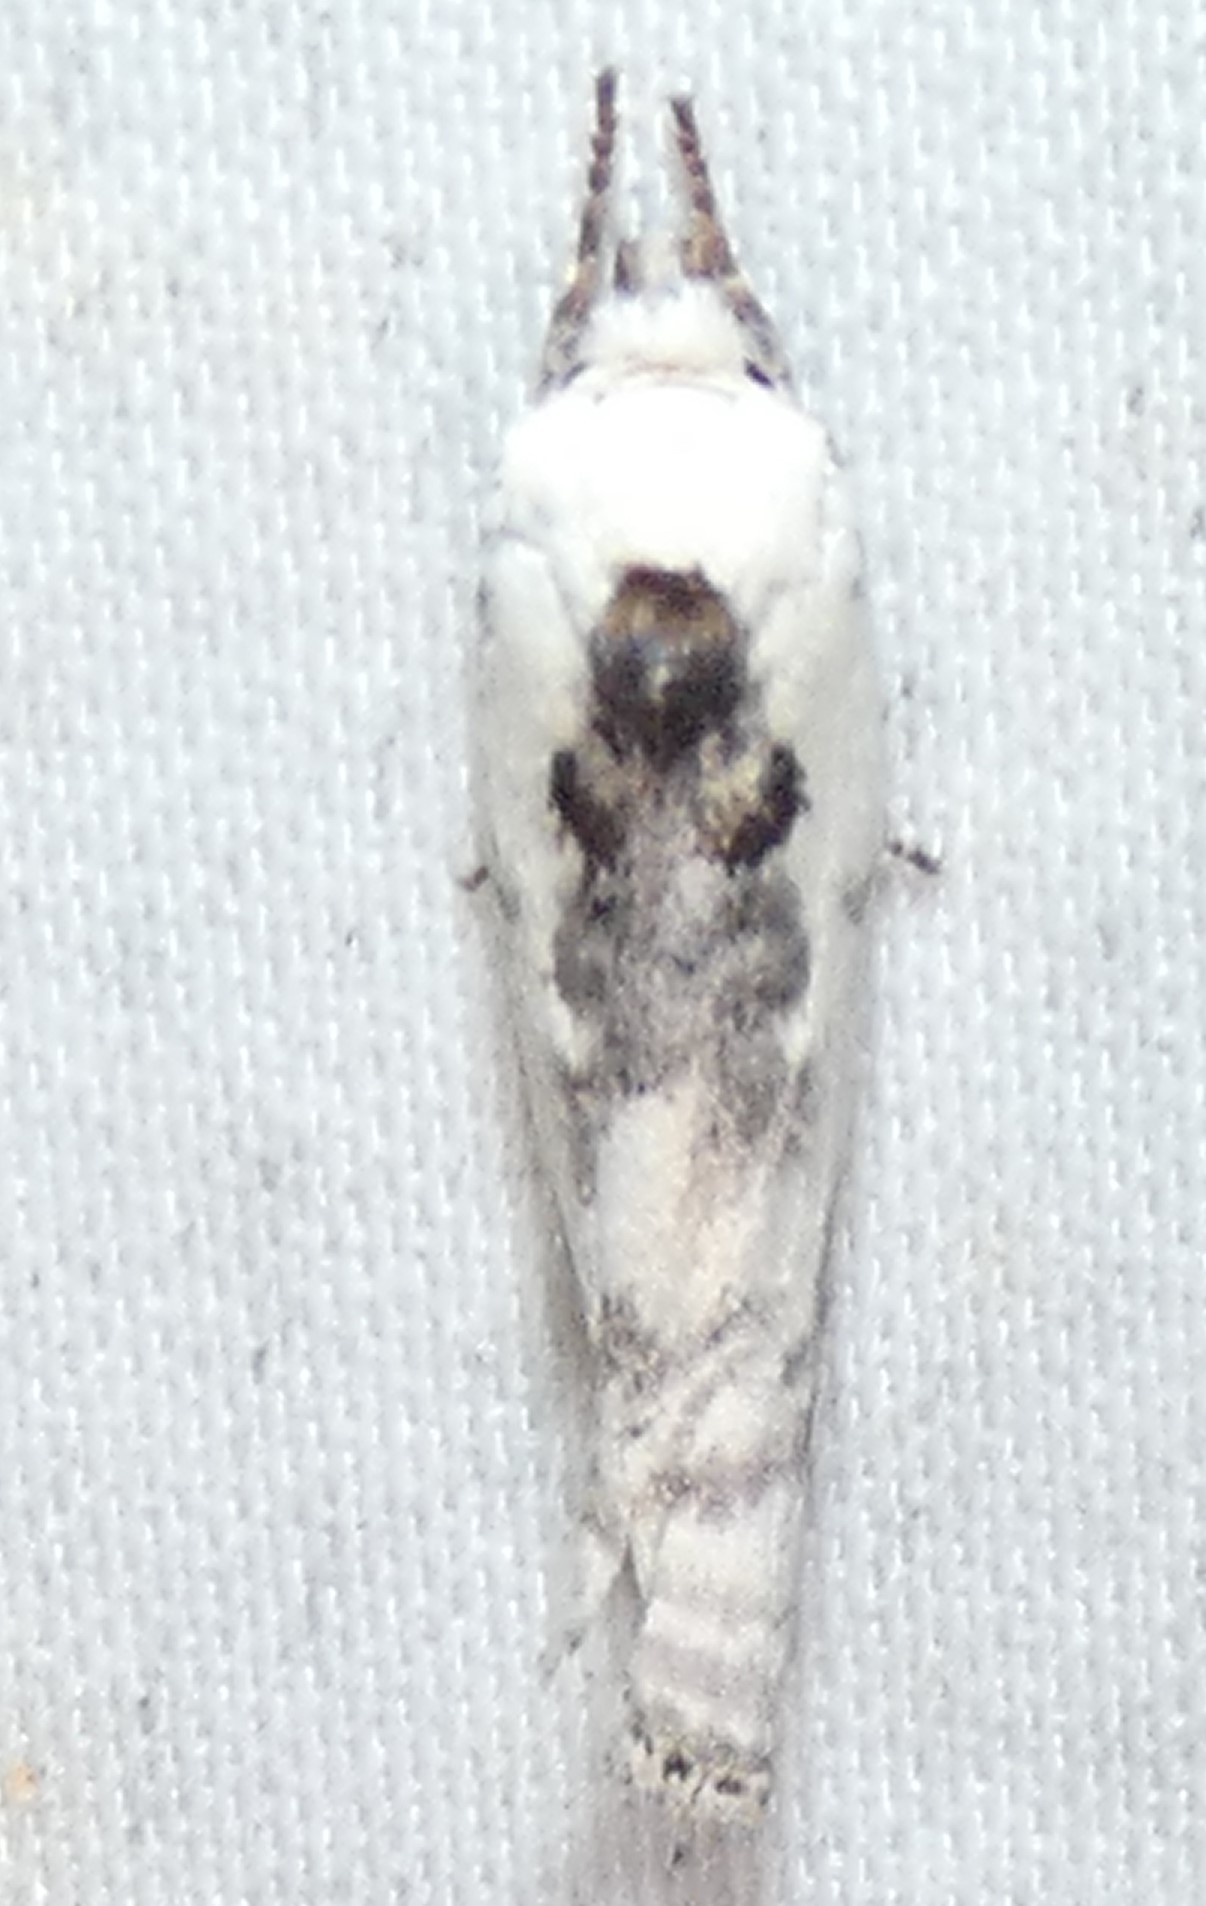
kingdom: Animalia
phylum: Arthropoda
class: Insecta
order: Lepidoptera
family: Depressariidae
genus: Antaeotricha
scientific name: Antaeotricha schlaegeri
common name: Schlaeger's fruitworm moth
